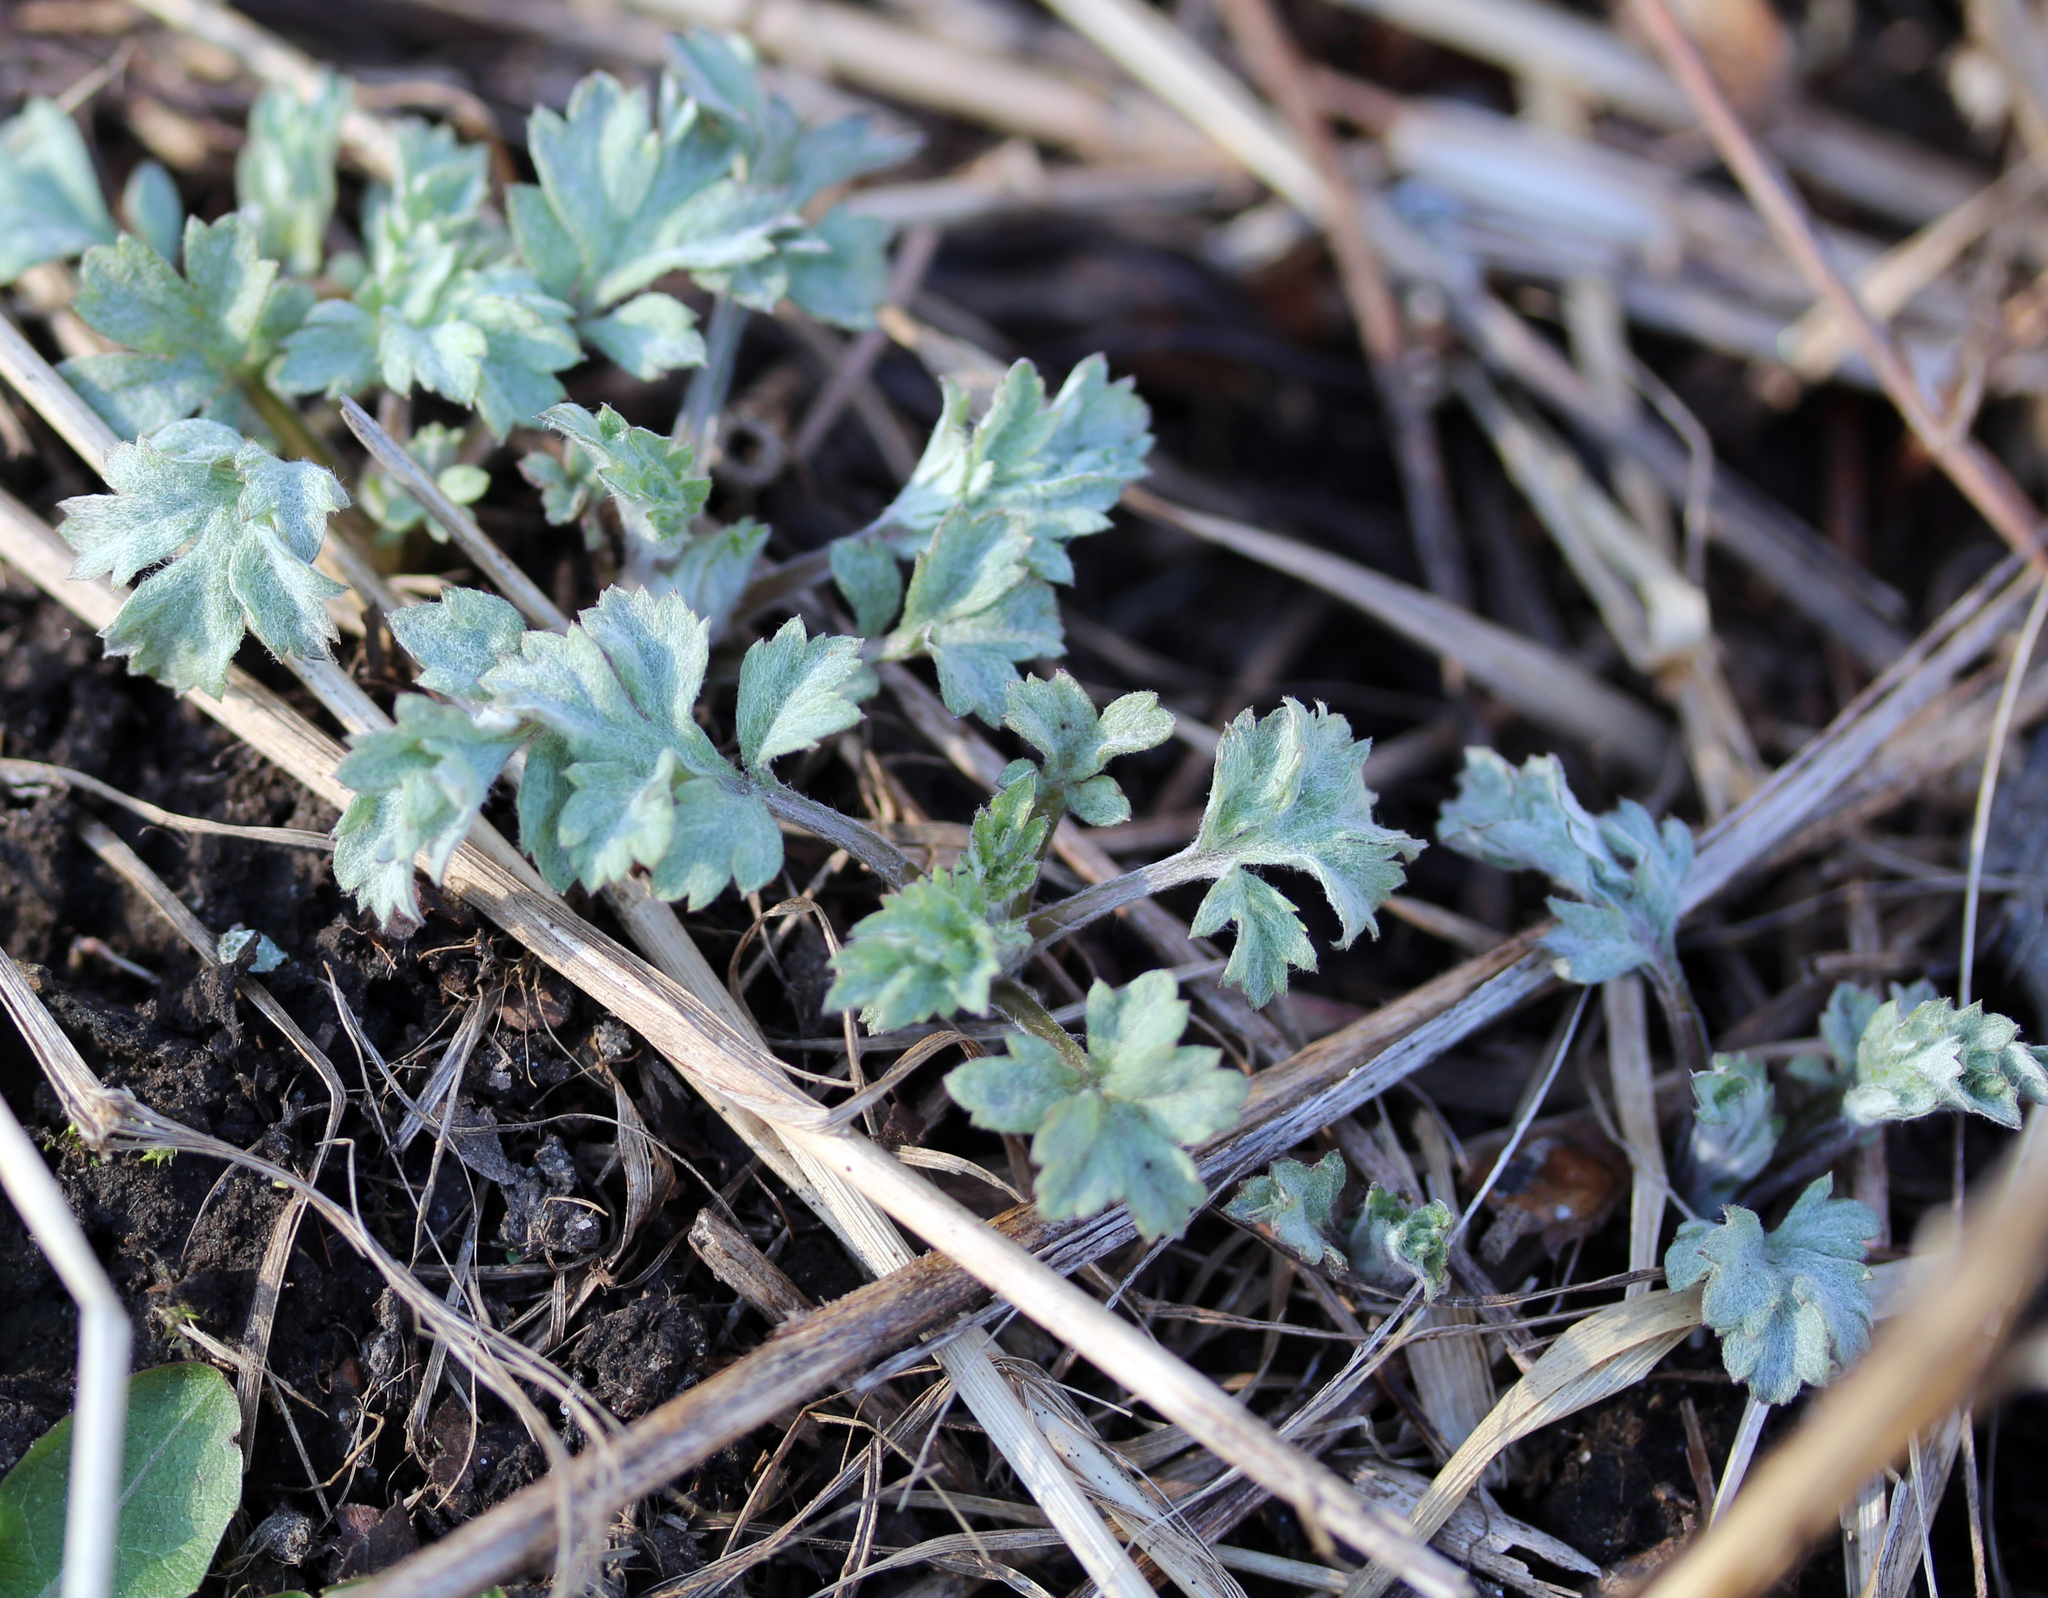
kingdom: Plantae
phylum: Tracheophyta
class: Magnoliopsida
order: Asterales
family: Asteraceae
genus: Artemisia
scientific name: Artemisia vulgaris
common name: Mugwort
